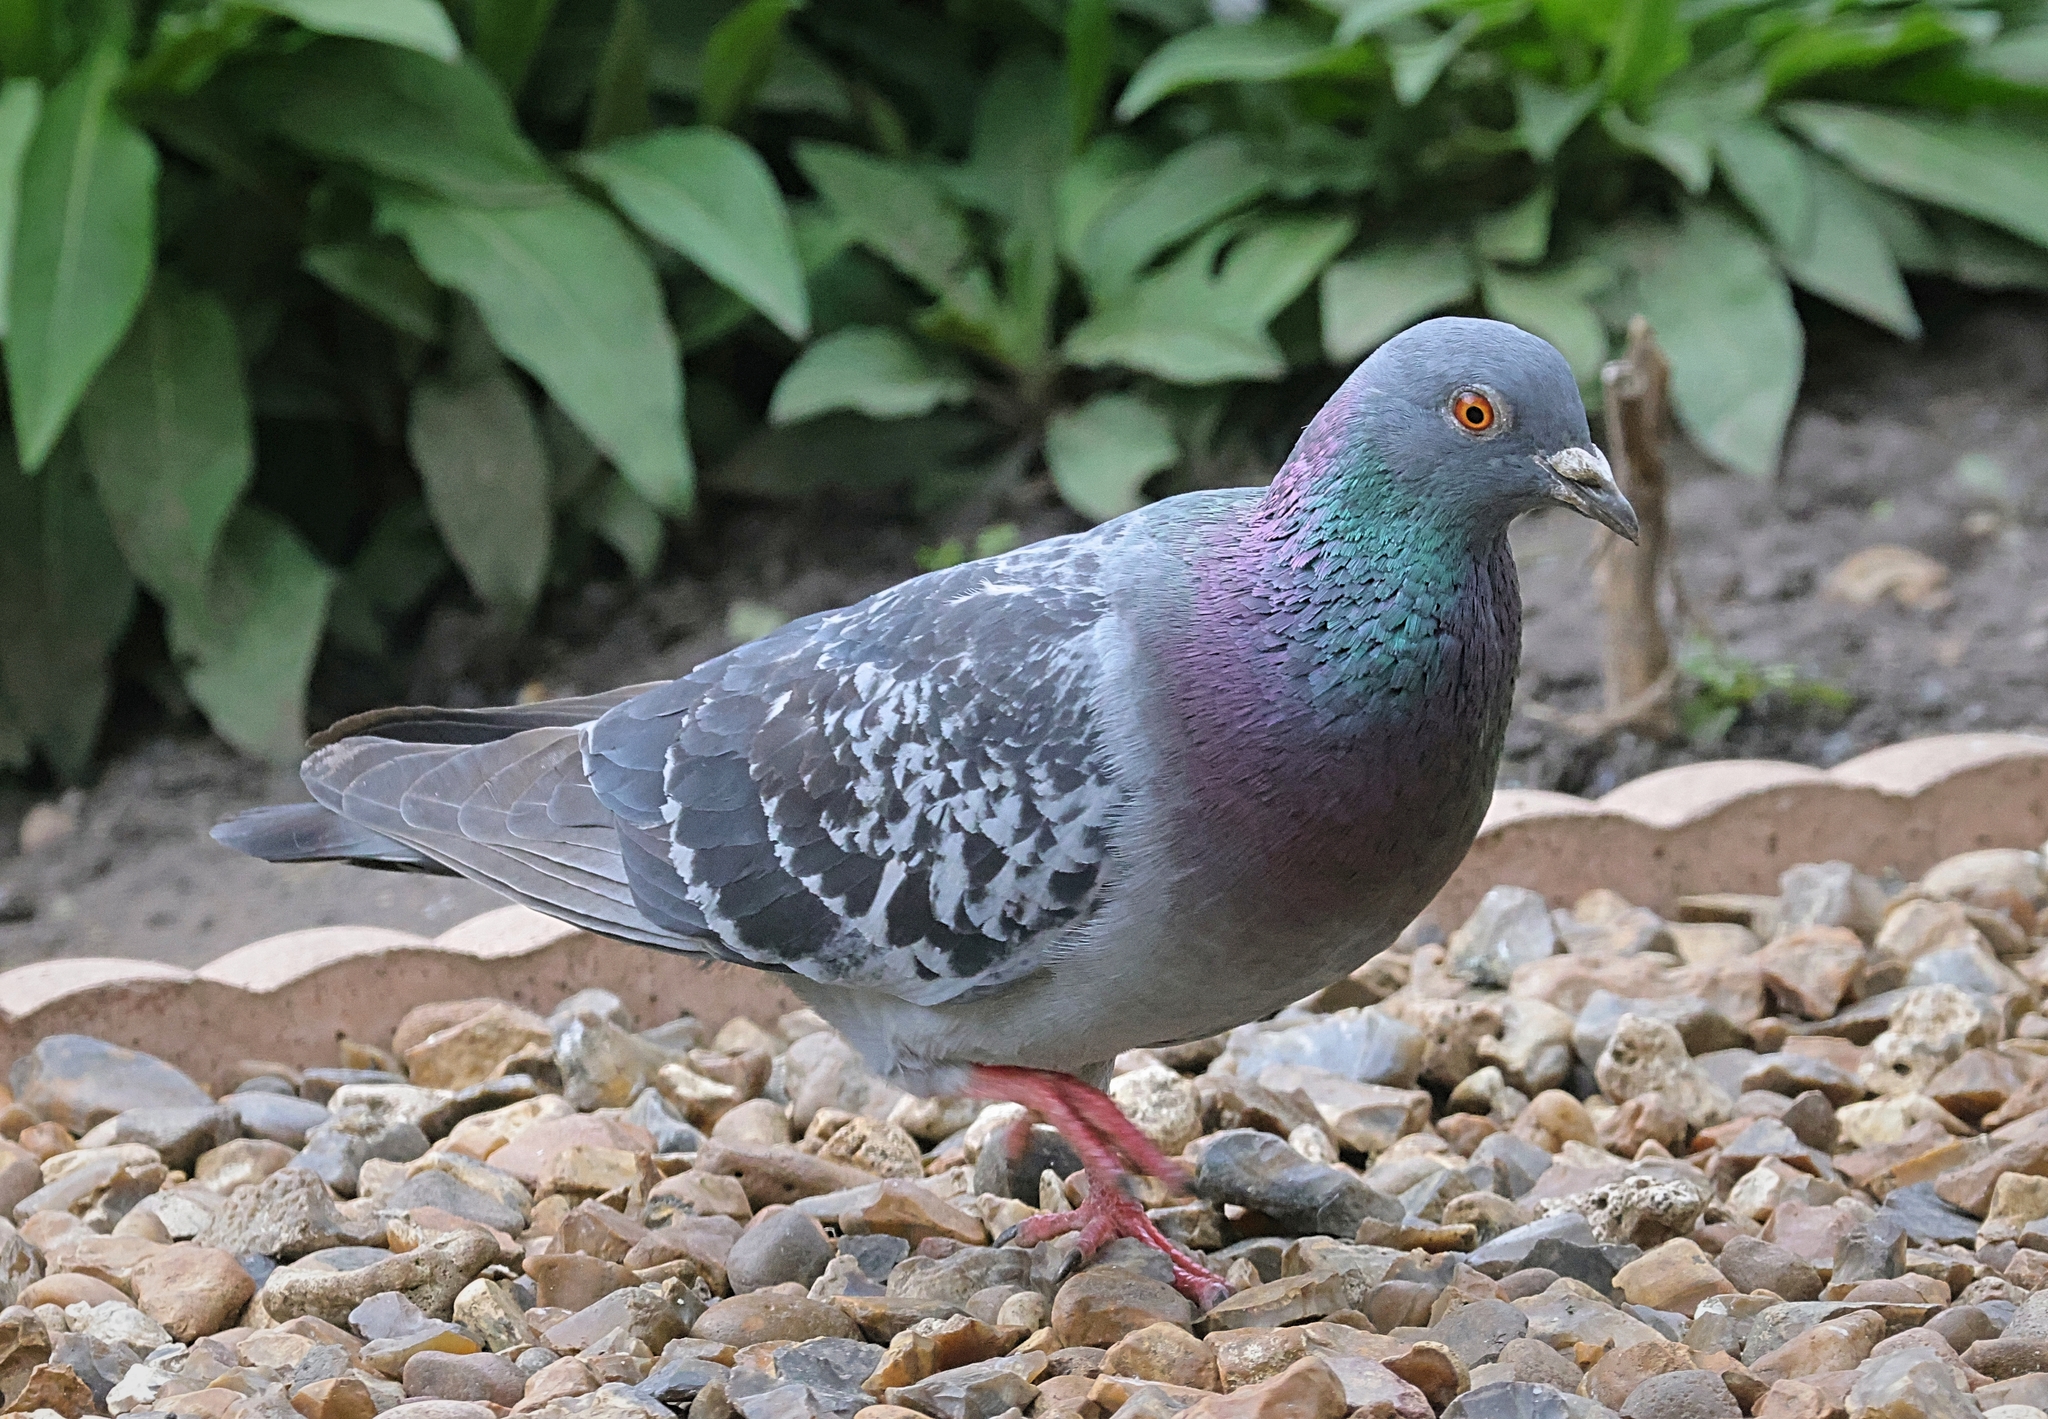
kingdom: Animalia
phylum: Chordata
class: Aves
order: Columbiformes
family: Columbidae
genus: Columba
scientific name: Columba livia
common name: Rock pigeon
